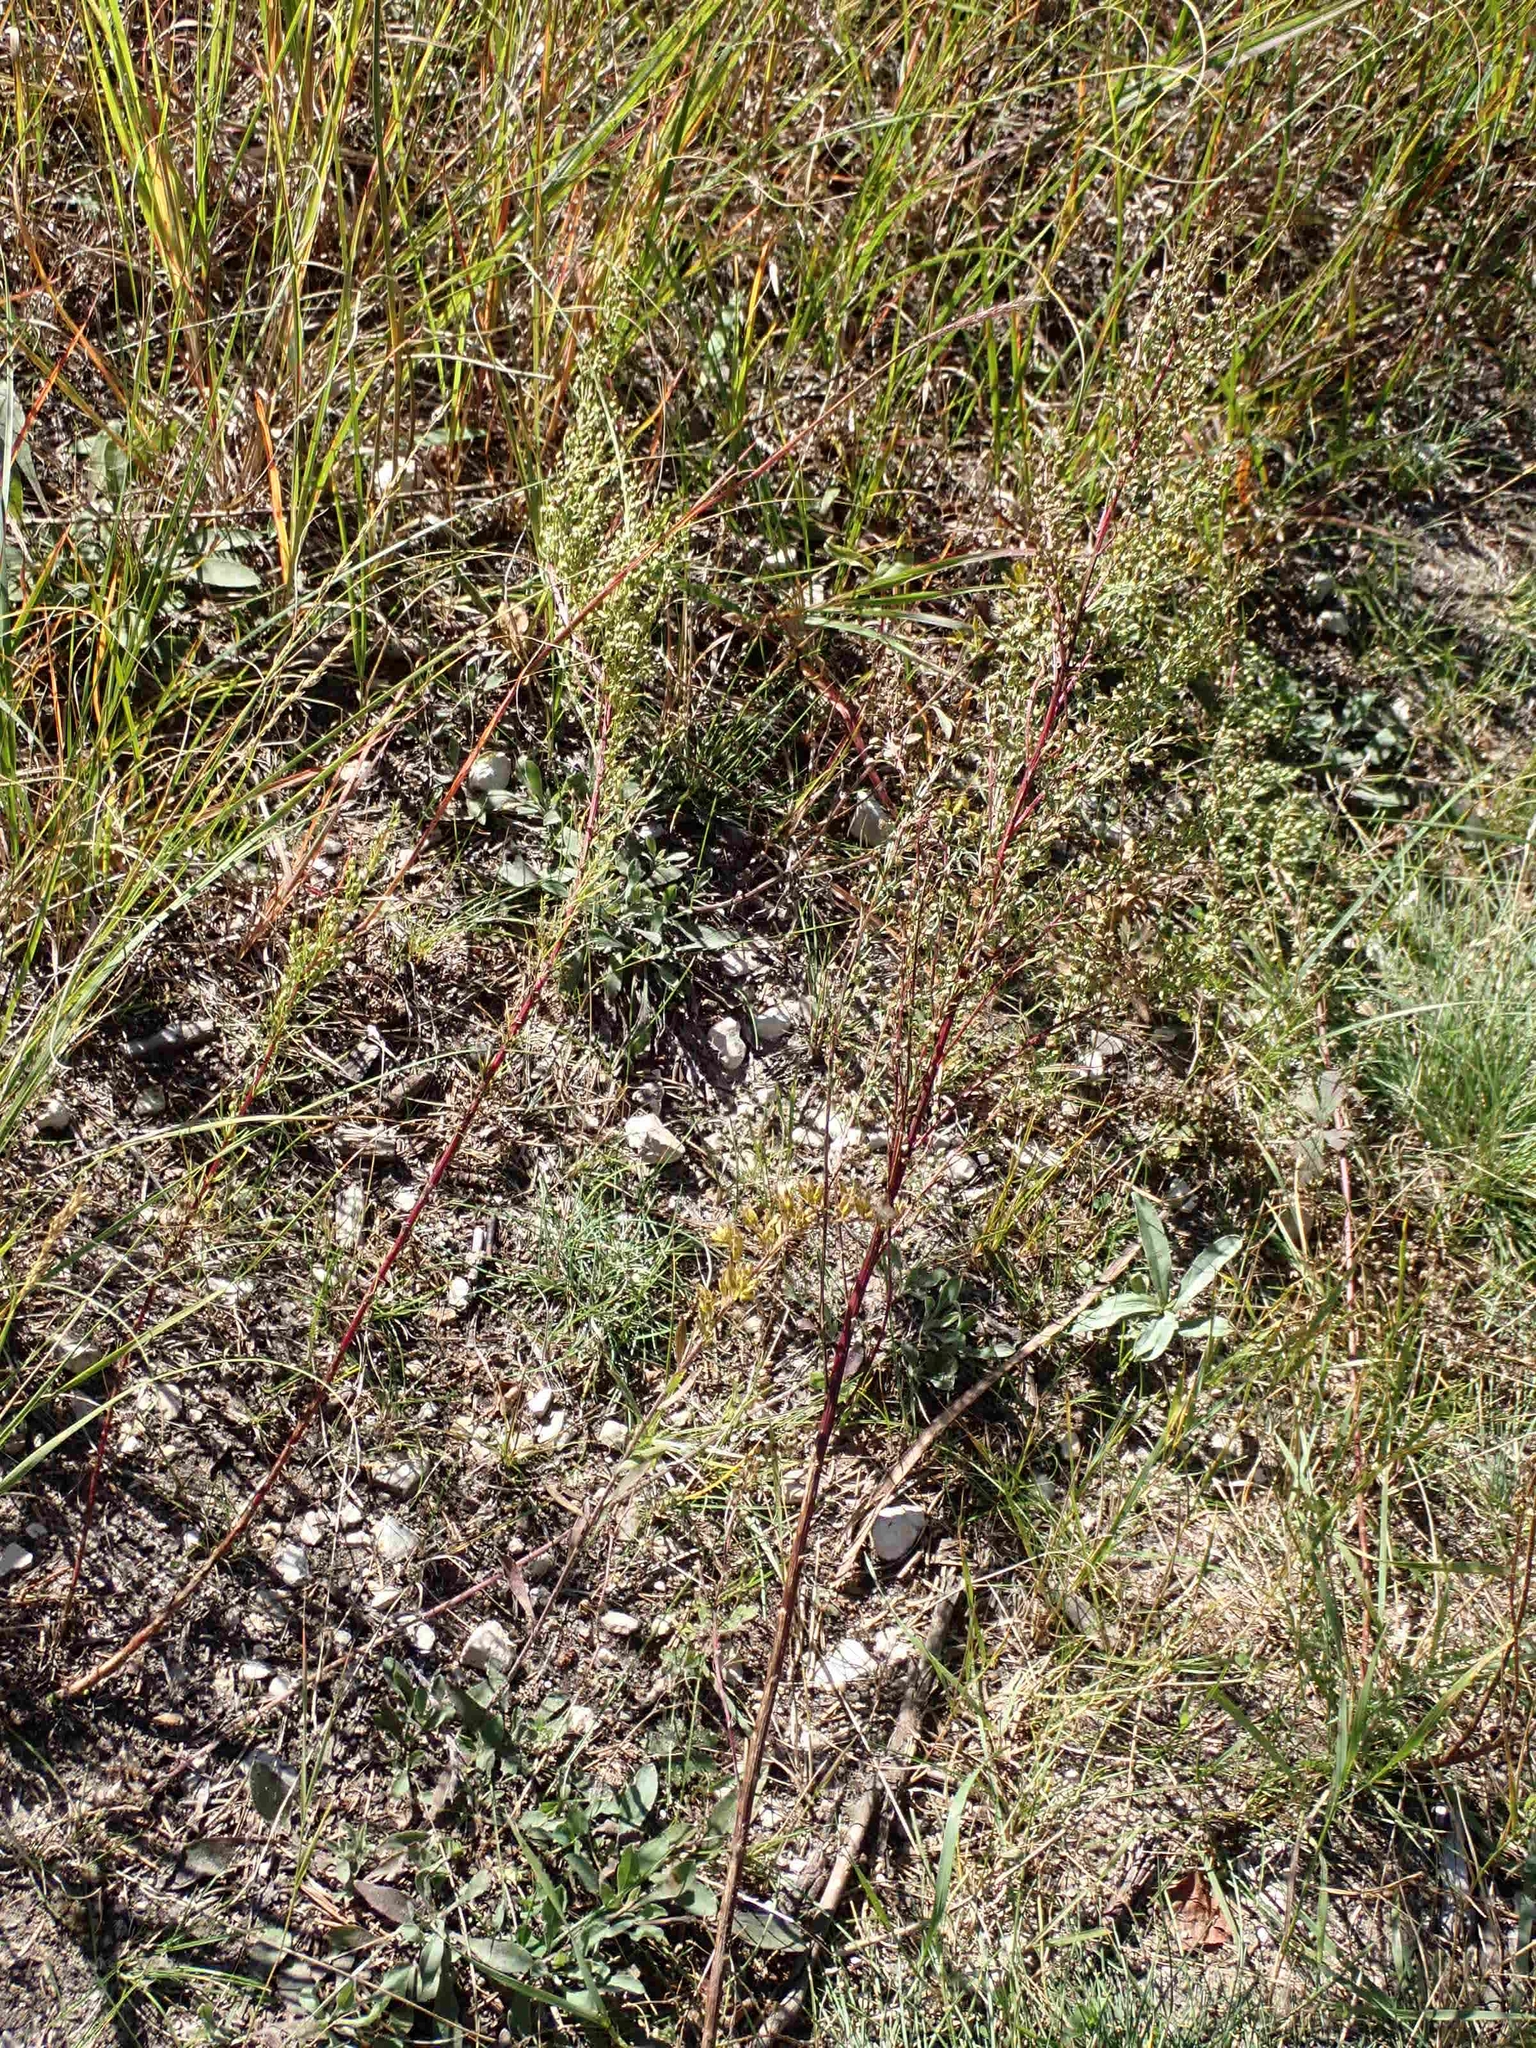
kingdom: Plantae
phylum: Tracheophyta
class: Magnoliopsida
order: Asterales
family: Asteraceae
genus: Artemisia
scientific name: Artemisia campestris
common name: Field wormwood
